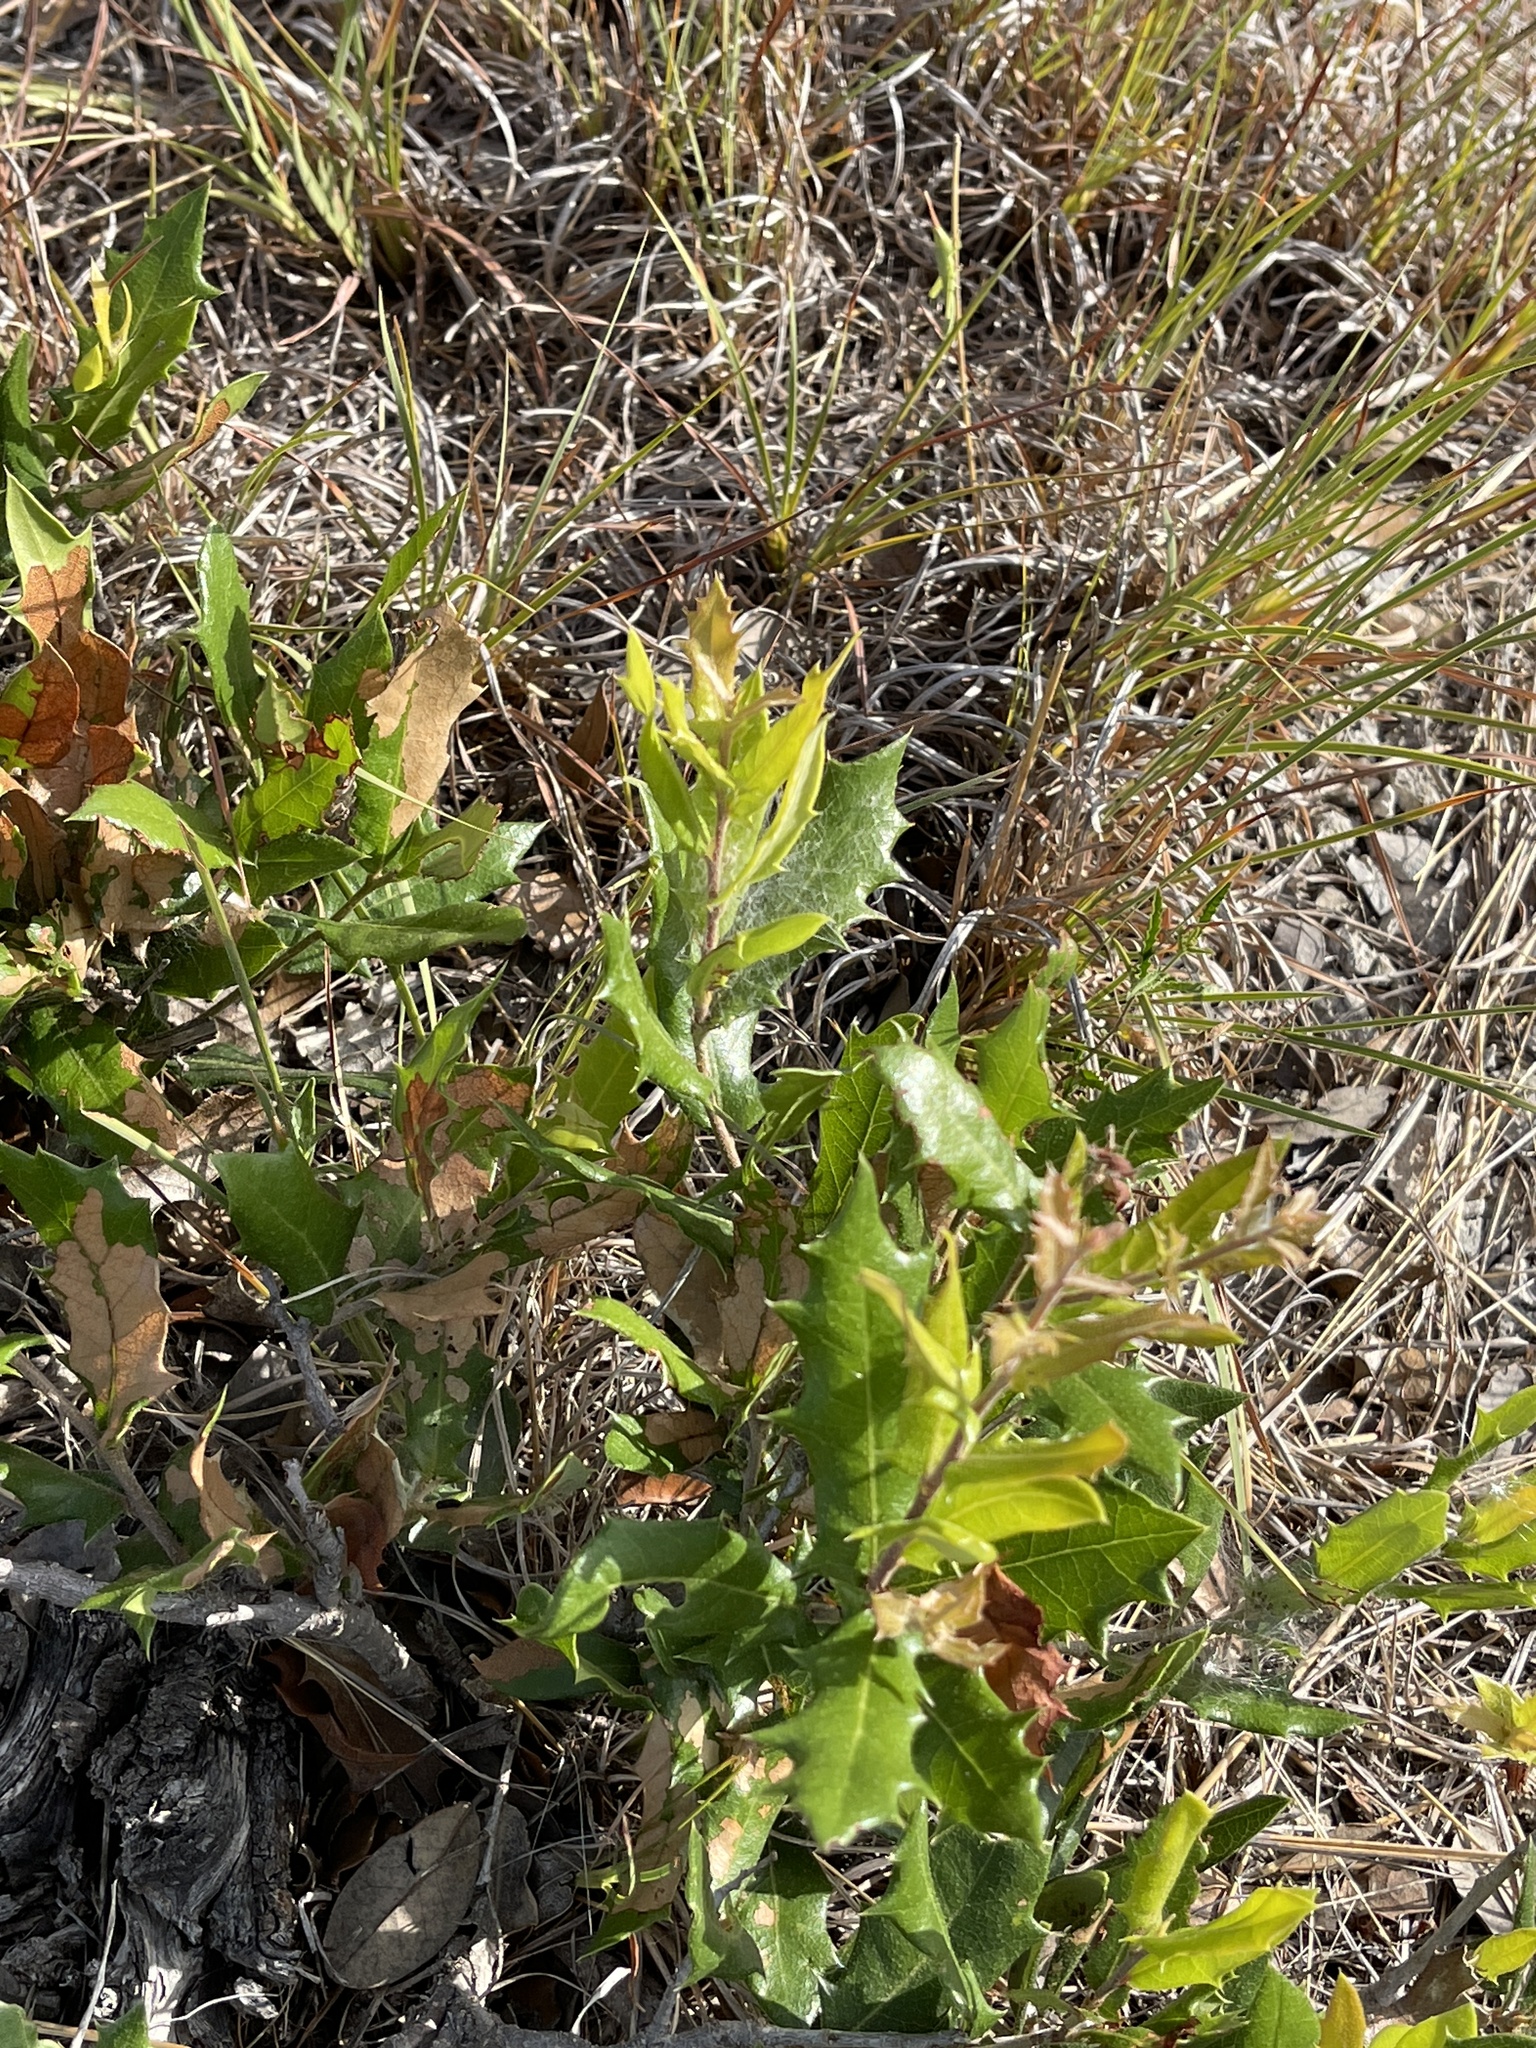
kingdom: Plantae
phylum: Tracheophyta
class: Magnoliopsida
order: Fagales
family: Fagaceae
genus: Quercus
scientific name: Quercus fusiformis
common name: Texas live oak
